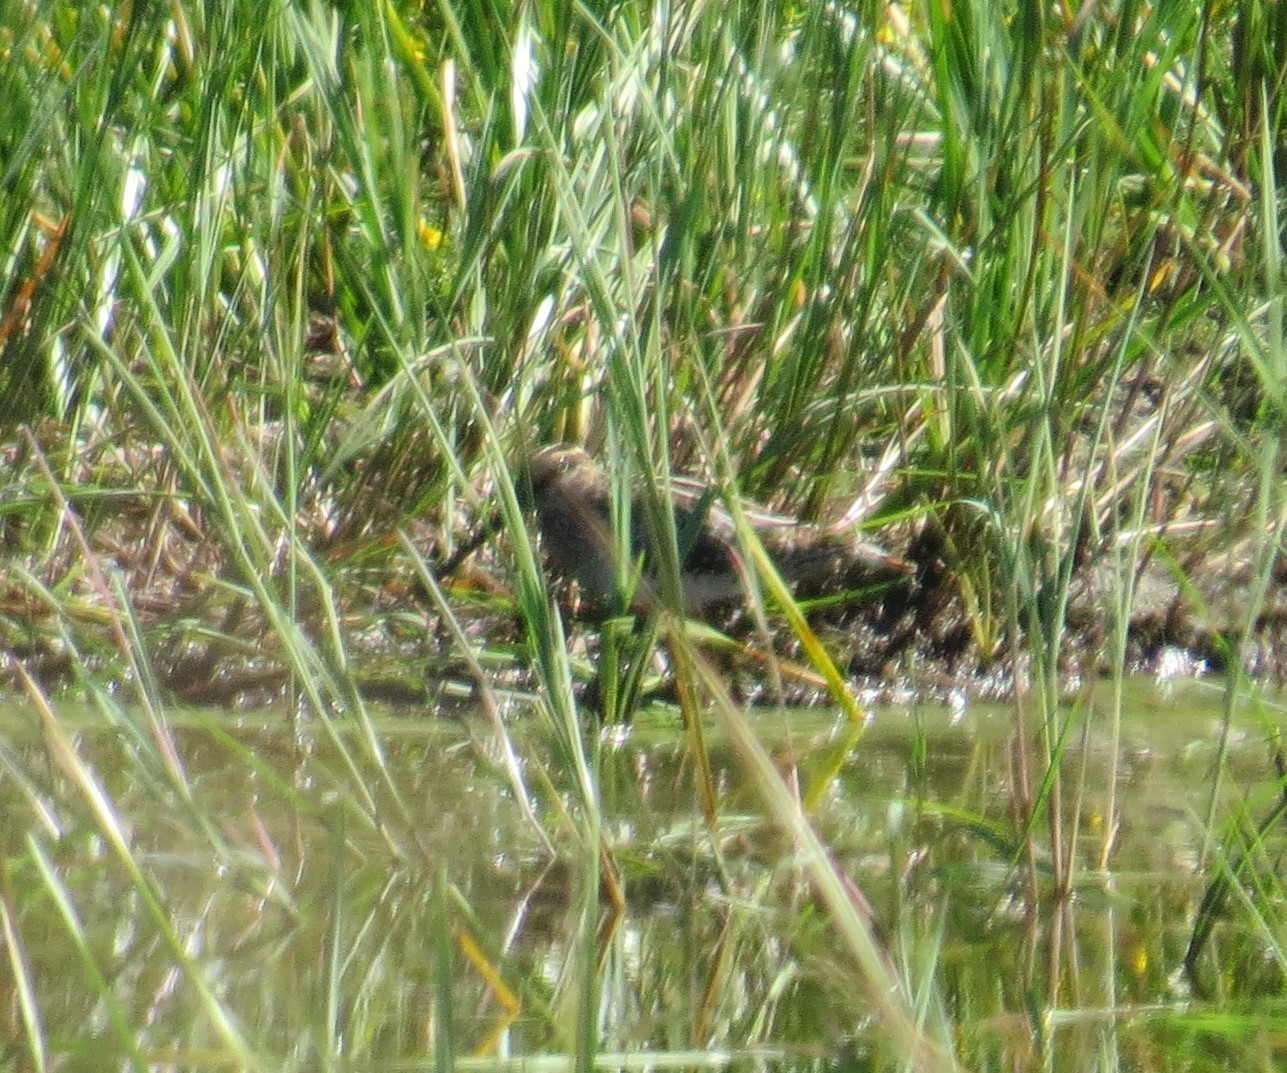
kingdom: Animalia
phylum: Chordata
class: Aves
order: Charadriiformes
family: Scolopacidae
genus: Gallinago
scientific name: Gallinago delicata
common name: Wilson's snipe
